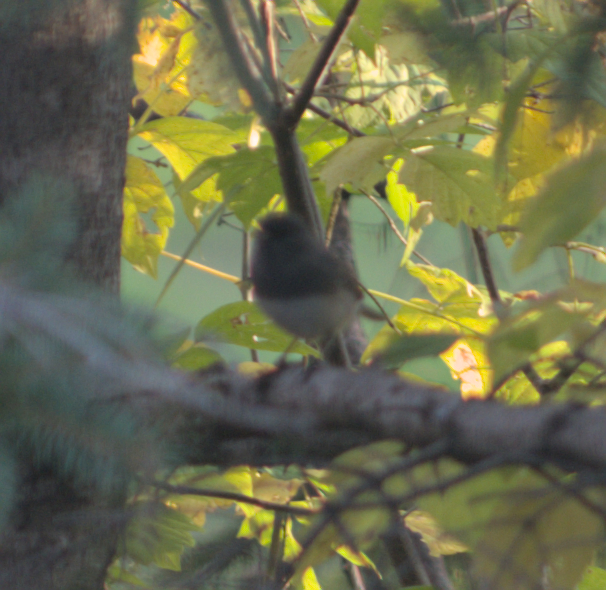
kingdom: Animalia
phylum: Chordata
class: Aves
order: Passeriformes
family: Passerellidae
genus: Junco
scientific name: Junco hyemalis
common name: Dark-eyed junco
